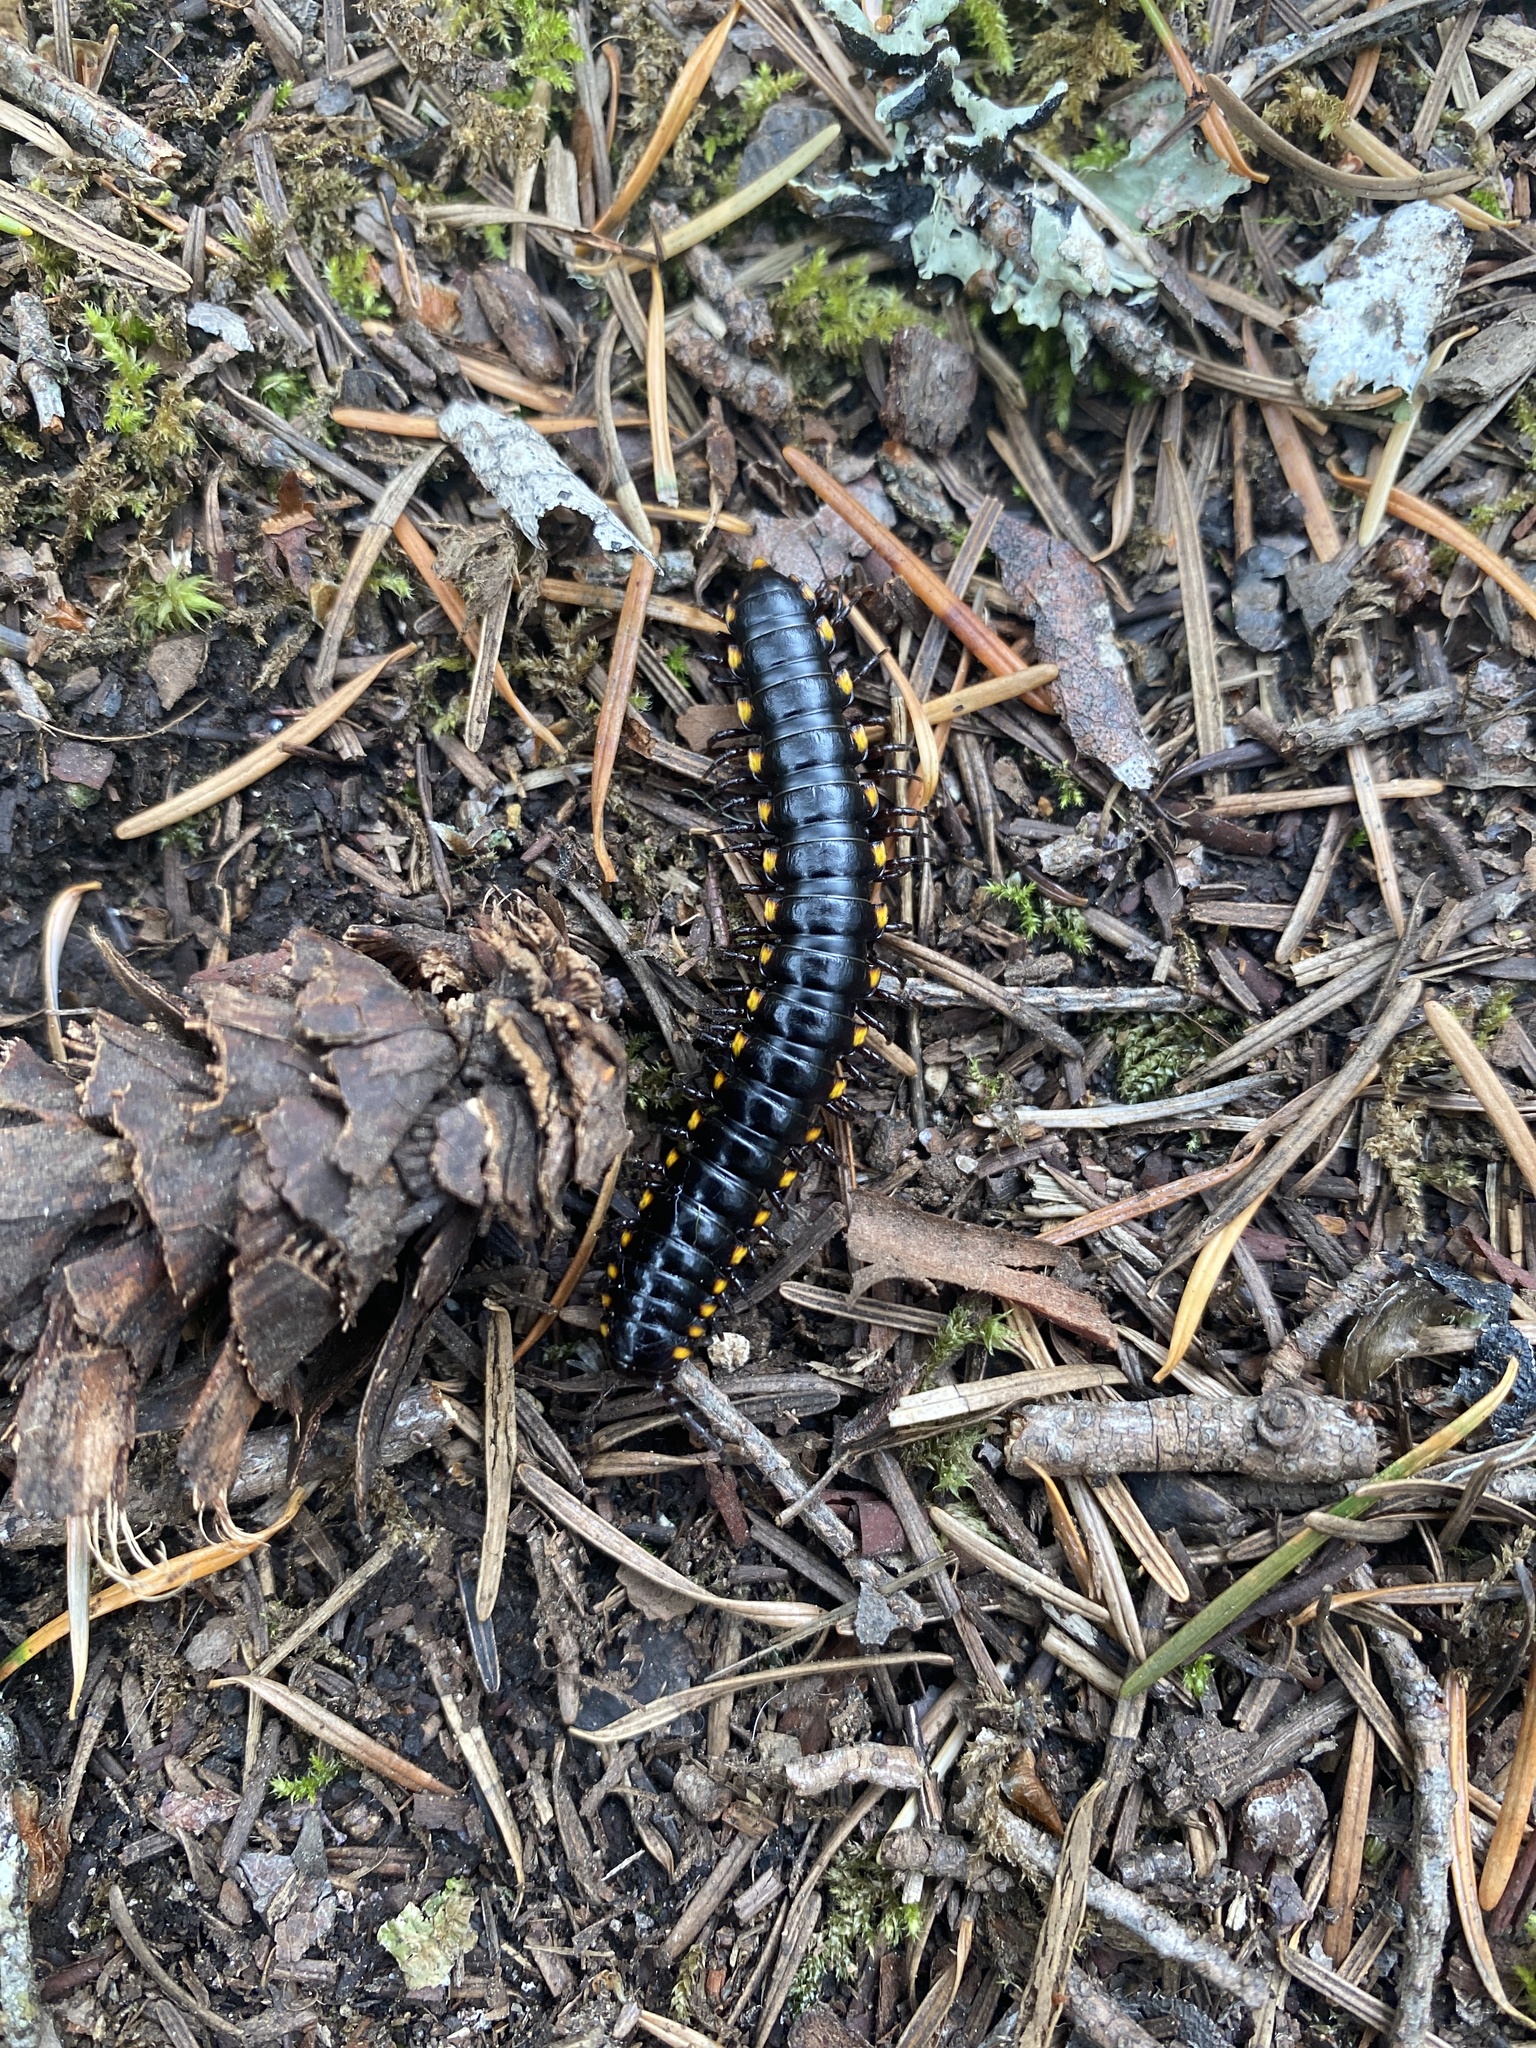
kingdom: Animalia
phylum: Arthropoda
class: Diplopoda
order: Polydesmida
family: Xystodesmidae
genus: Harpaphe
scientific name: Harpaphe haydeniana
